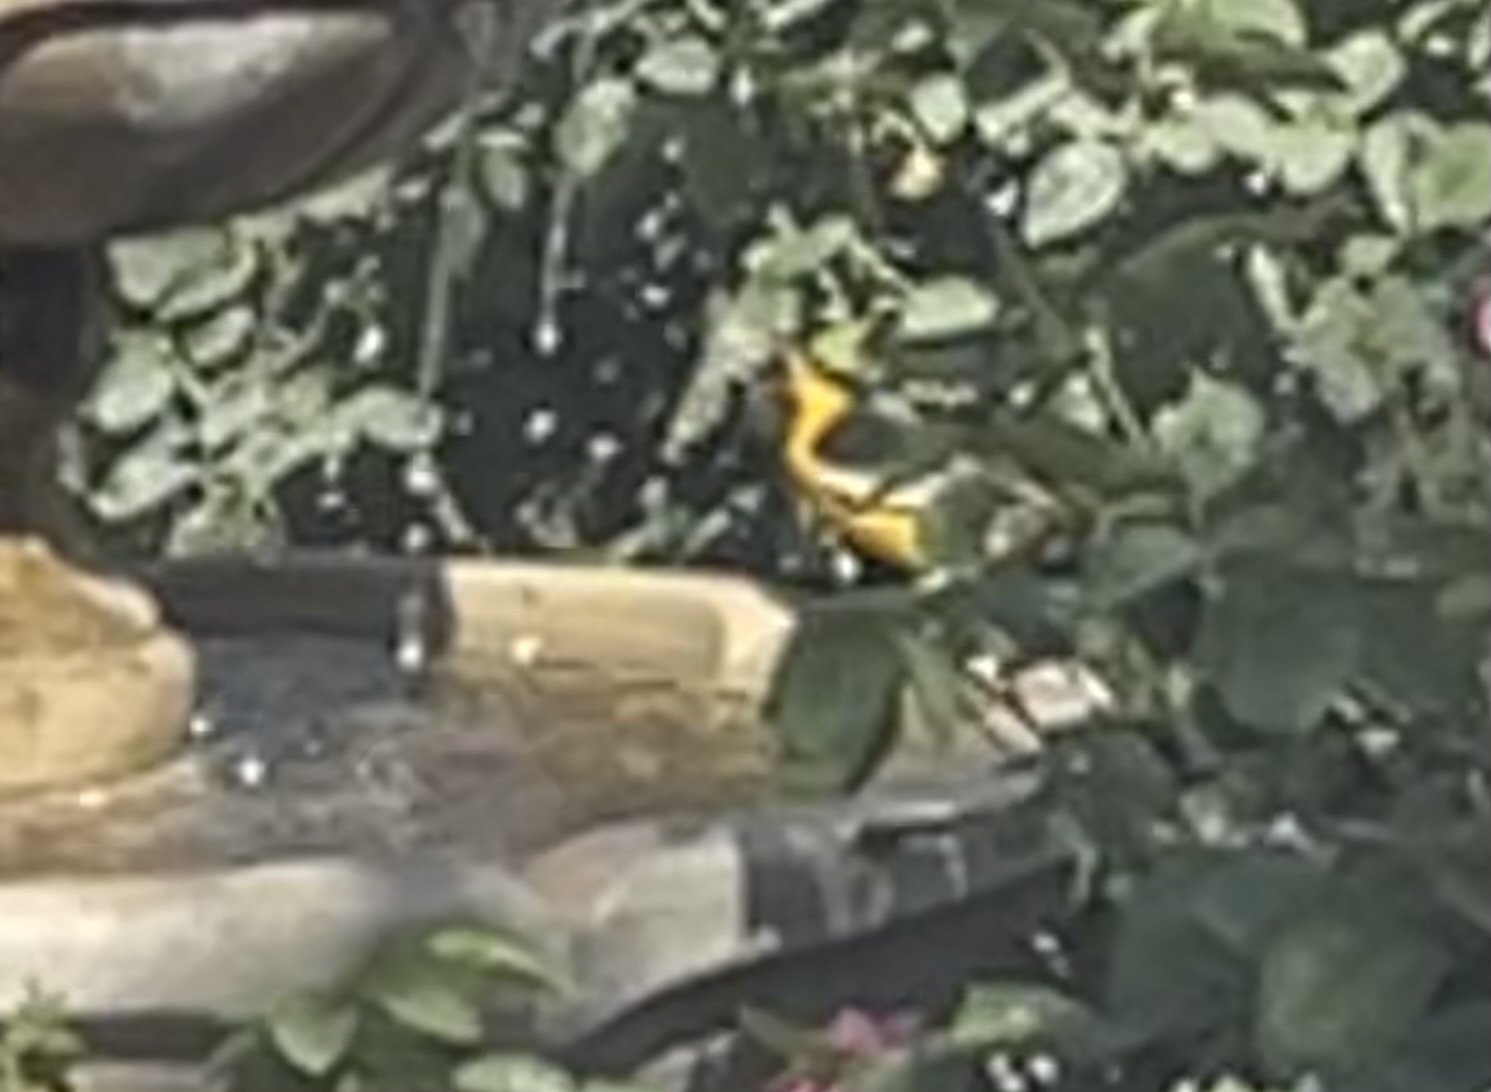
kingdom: Animalia
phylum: Chordata
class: Aves
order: Passeriformes
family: Icteridae
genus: Icterus
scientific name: Icterus bullockii
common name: Bullock's oriole
